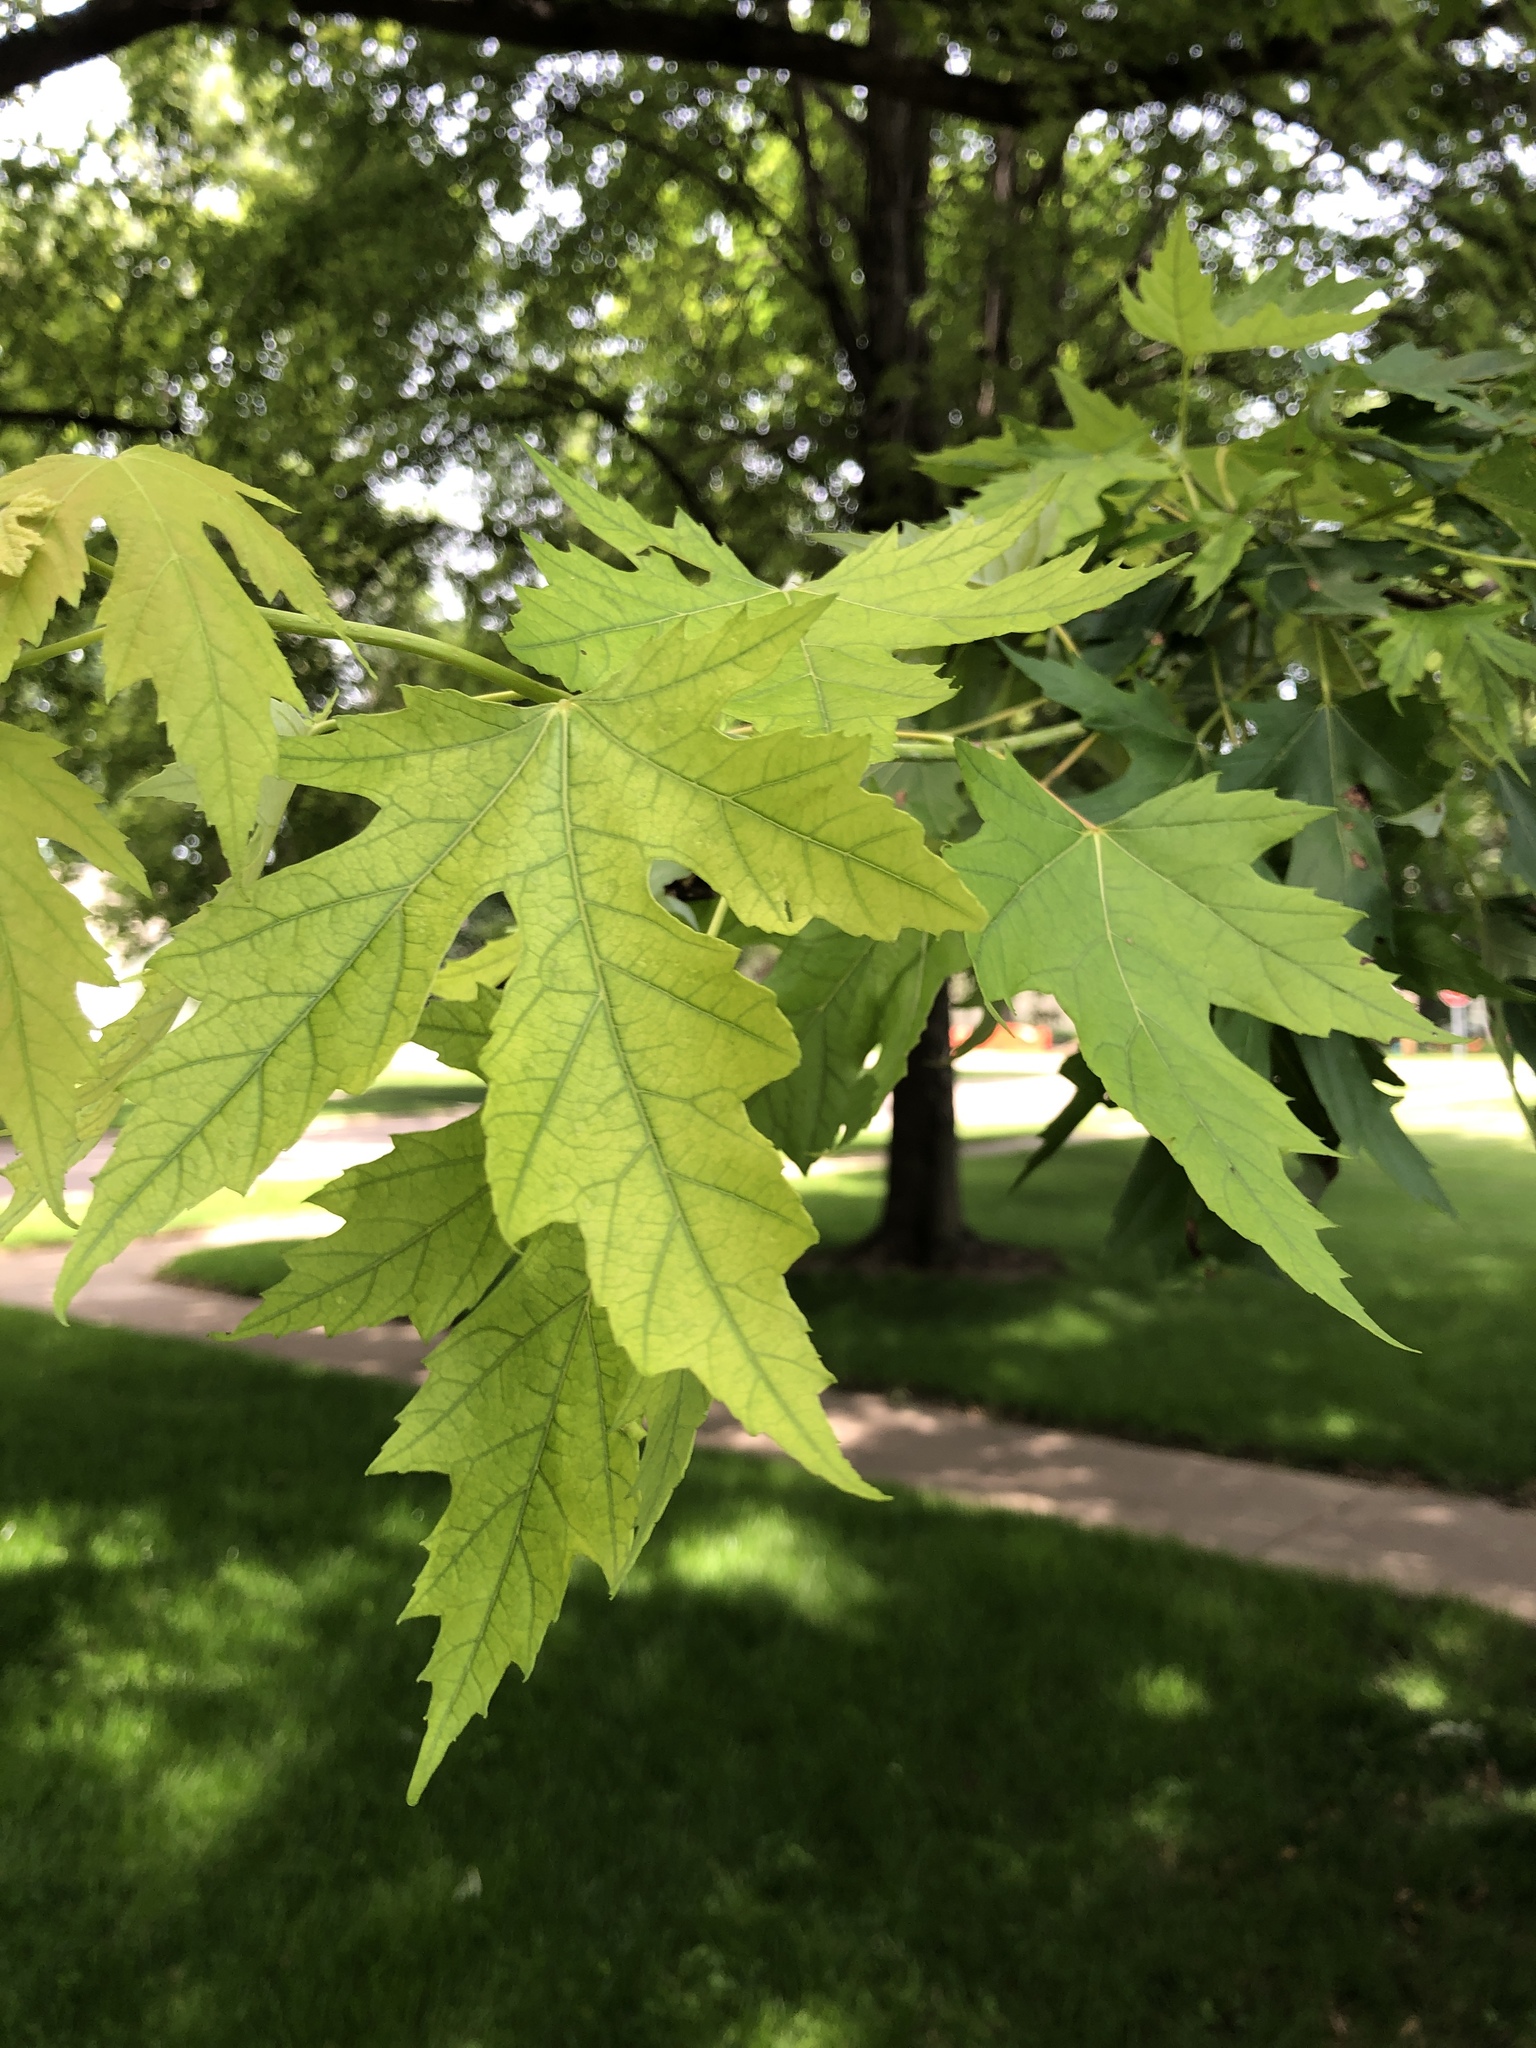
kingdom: Plantae
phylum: Tracheophyta
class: Magnoliopsida
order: Sapindales
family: Sapindaceae
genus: Acer
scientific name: Acer saccharinum
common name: Silver maple
